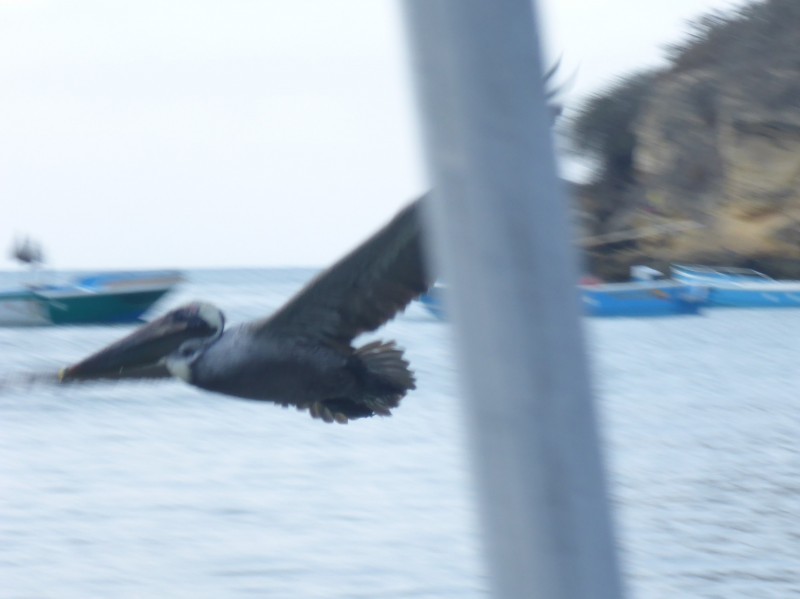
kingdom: Animalia
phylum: Chordata
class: Aves
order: Pelecaniformes
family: Pelecanidae
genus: Pelecanus
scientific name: Pelecanus occidentalis
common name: Brown pelican
